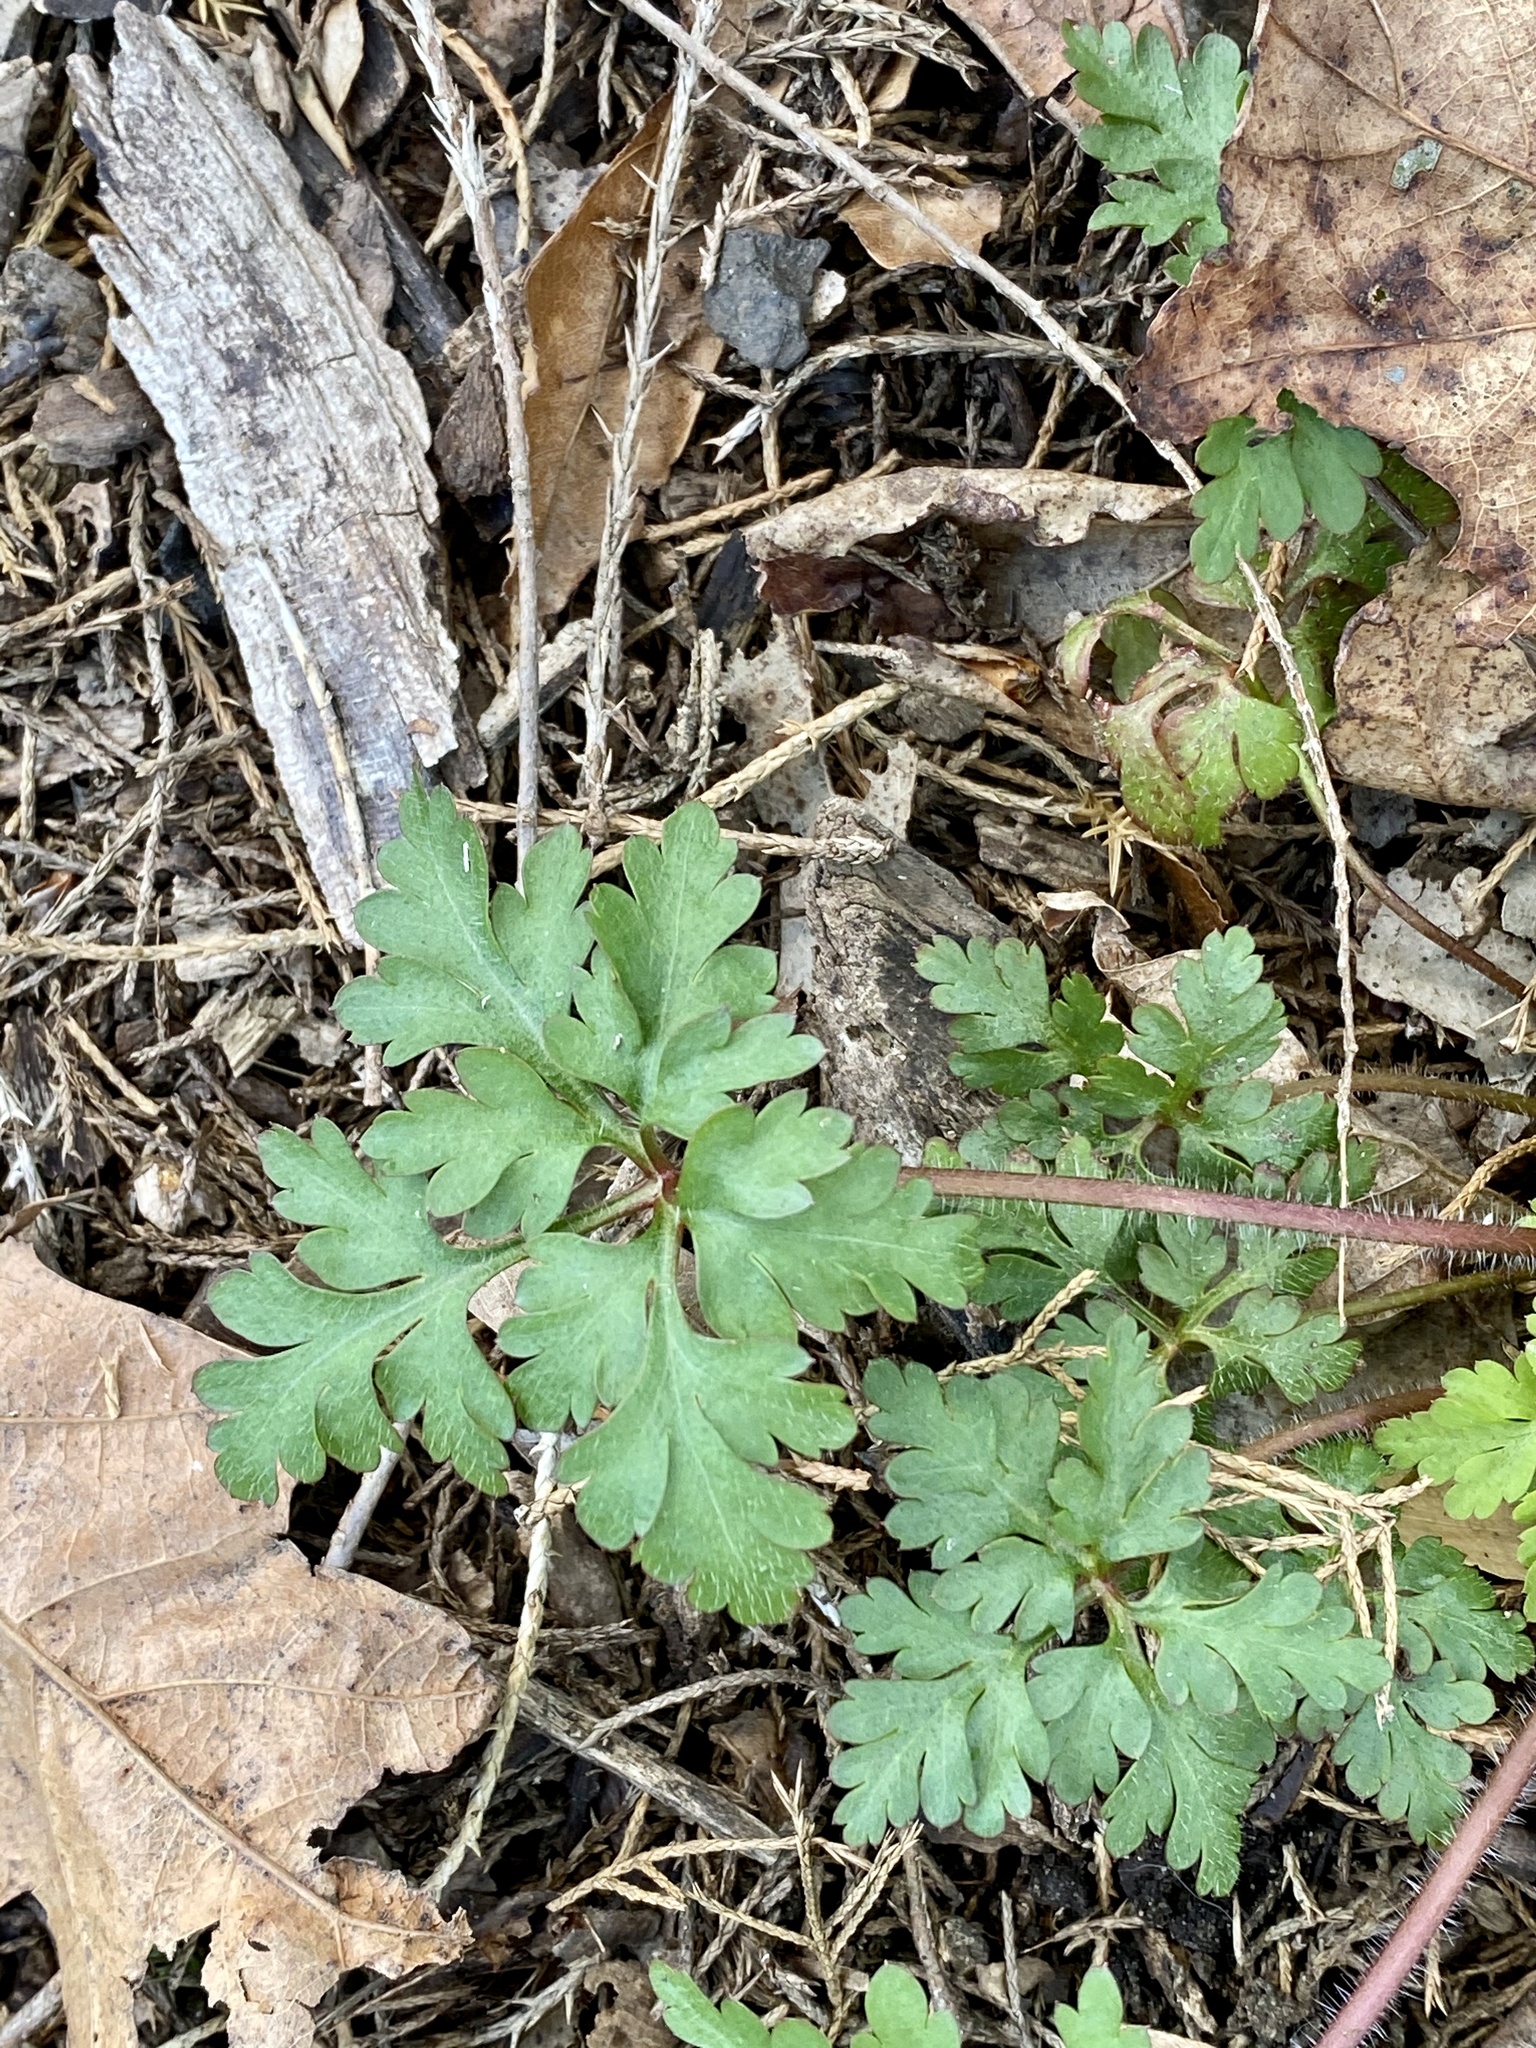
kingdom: Plantae
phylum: Tracheophyta
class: Magnoliopsida
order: Geraniales
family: Geraniaceae
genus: Geranium
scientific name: Geranium robertianum
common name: Herb-robert
